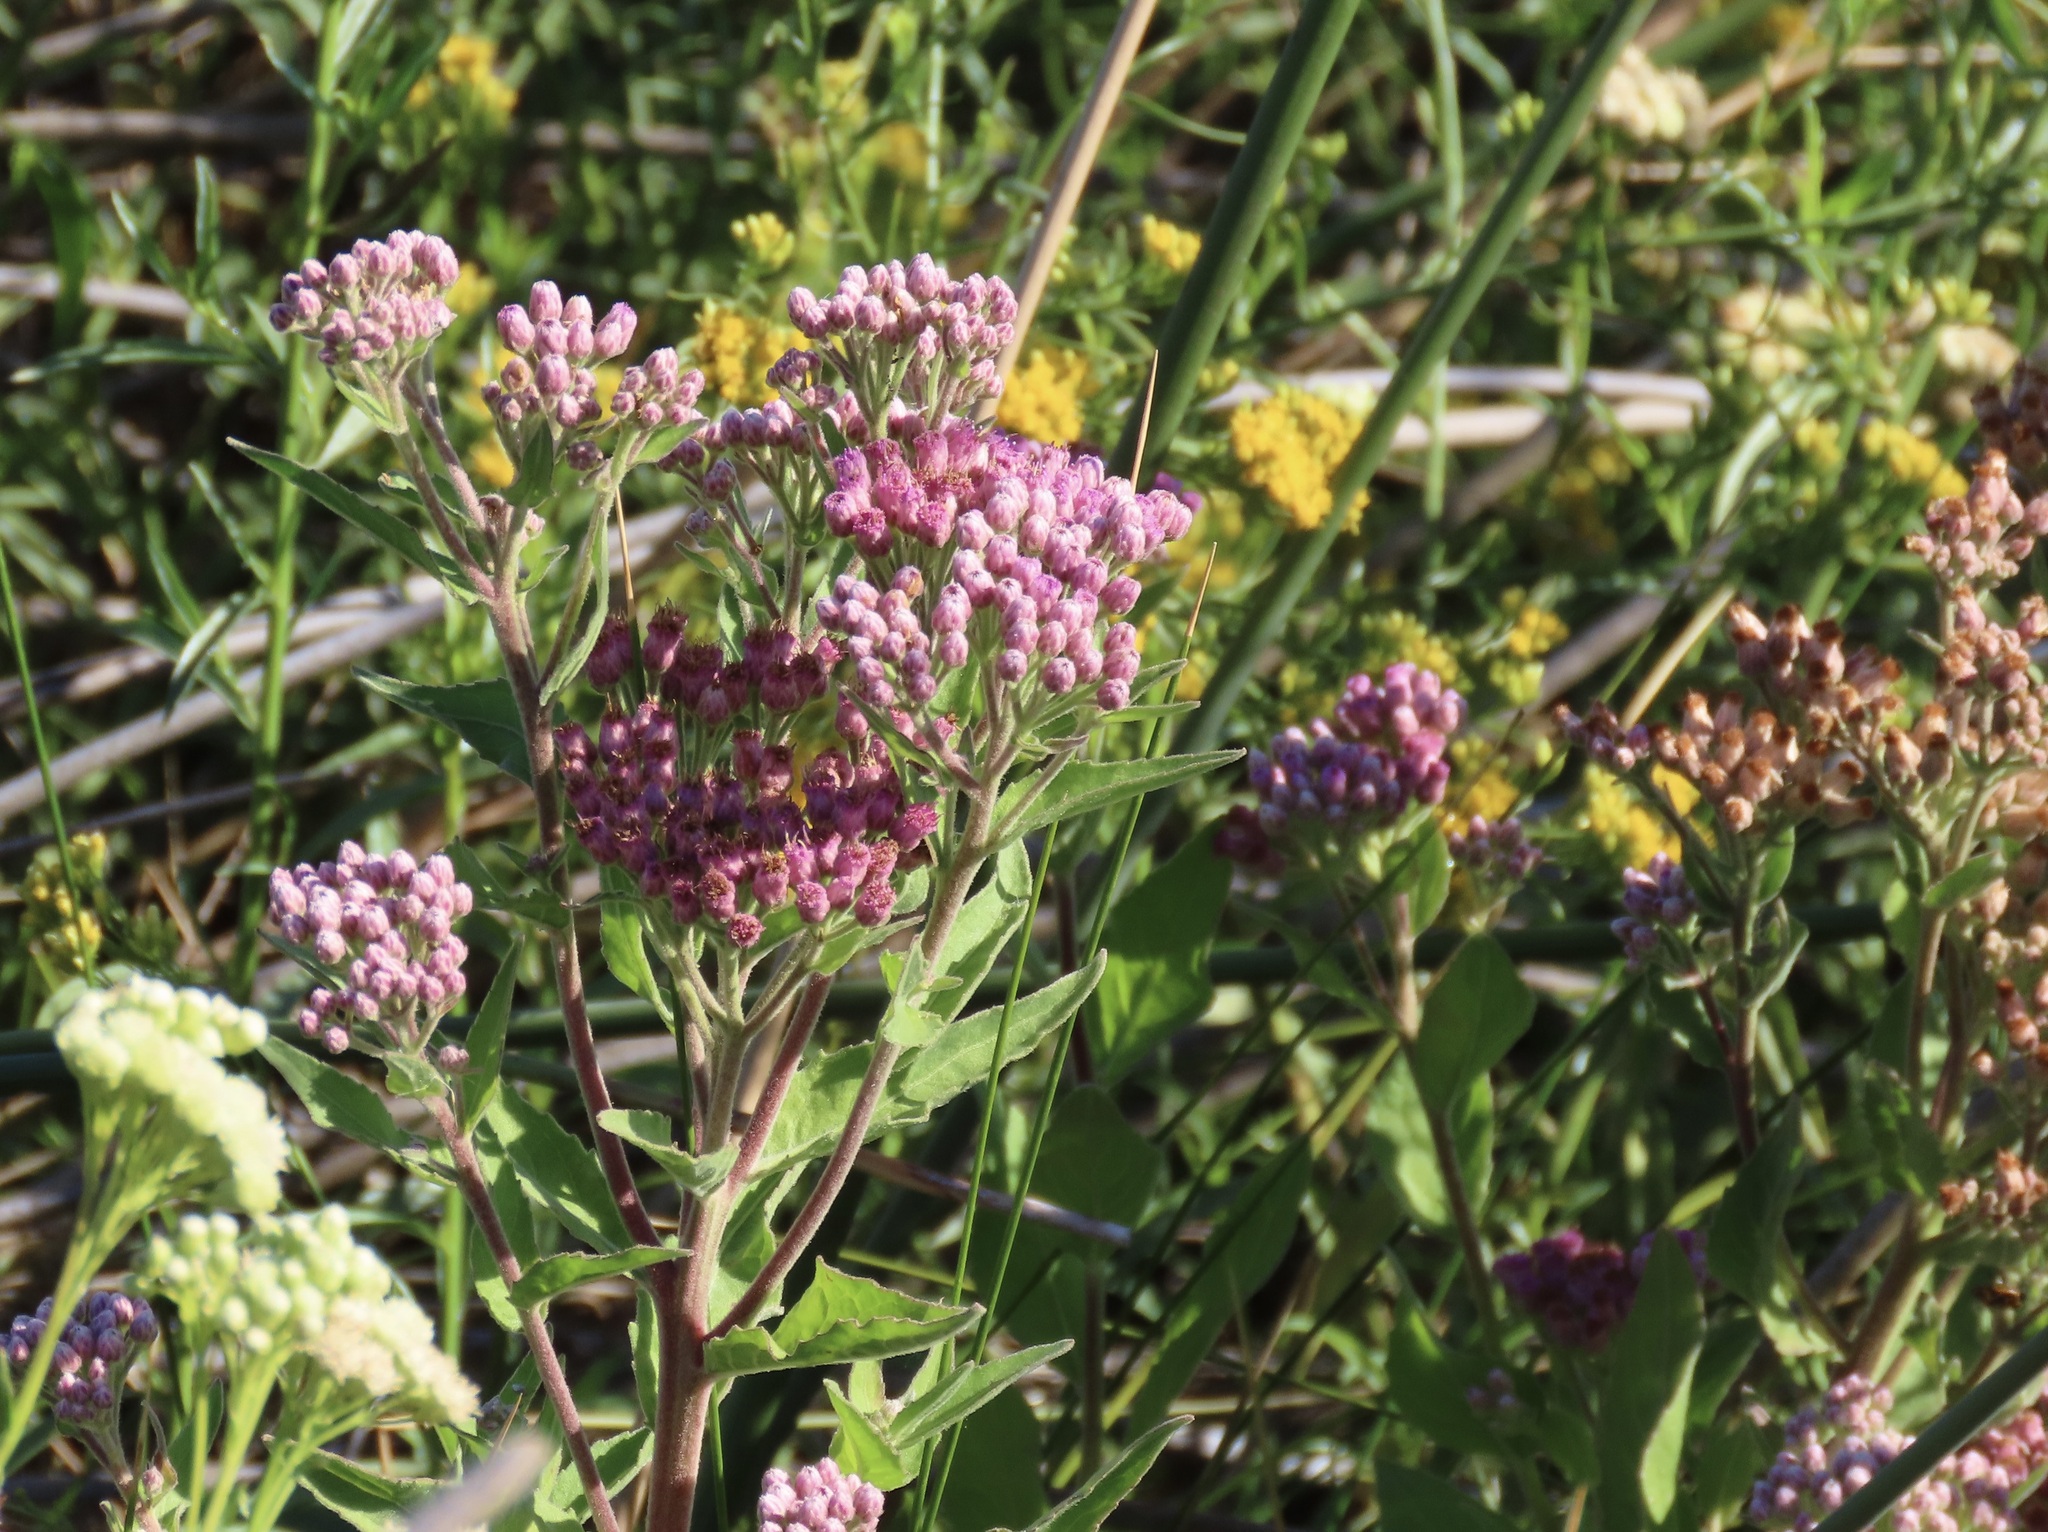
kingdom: Plantae
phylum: Tracheophyta
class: Magnoliopsida
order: Asterales
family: Asteraceae
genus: Pluchea
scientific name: Pluchea odorata
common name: Saltmarsh fleabane
